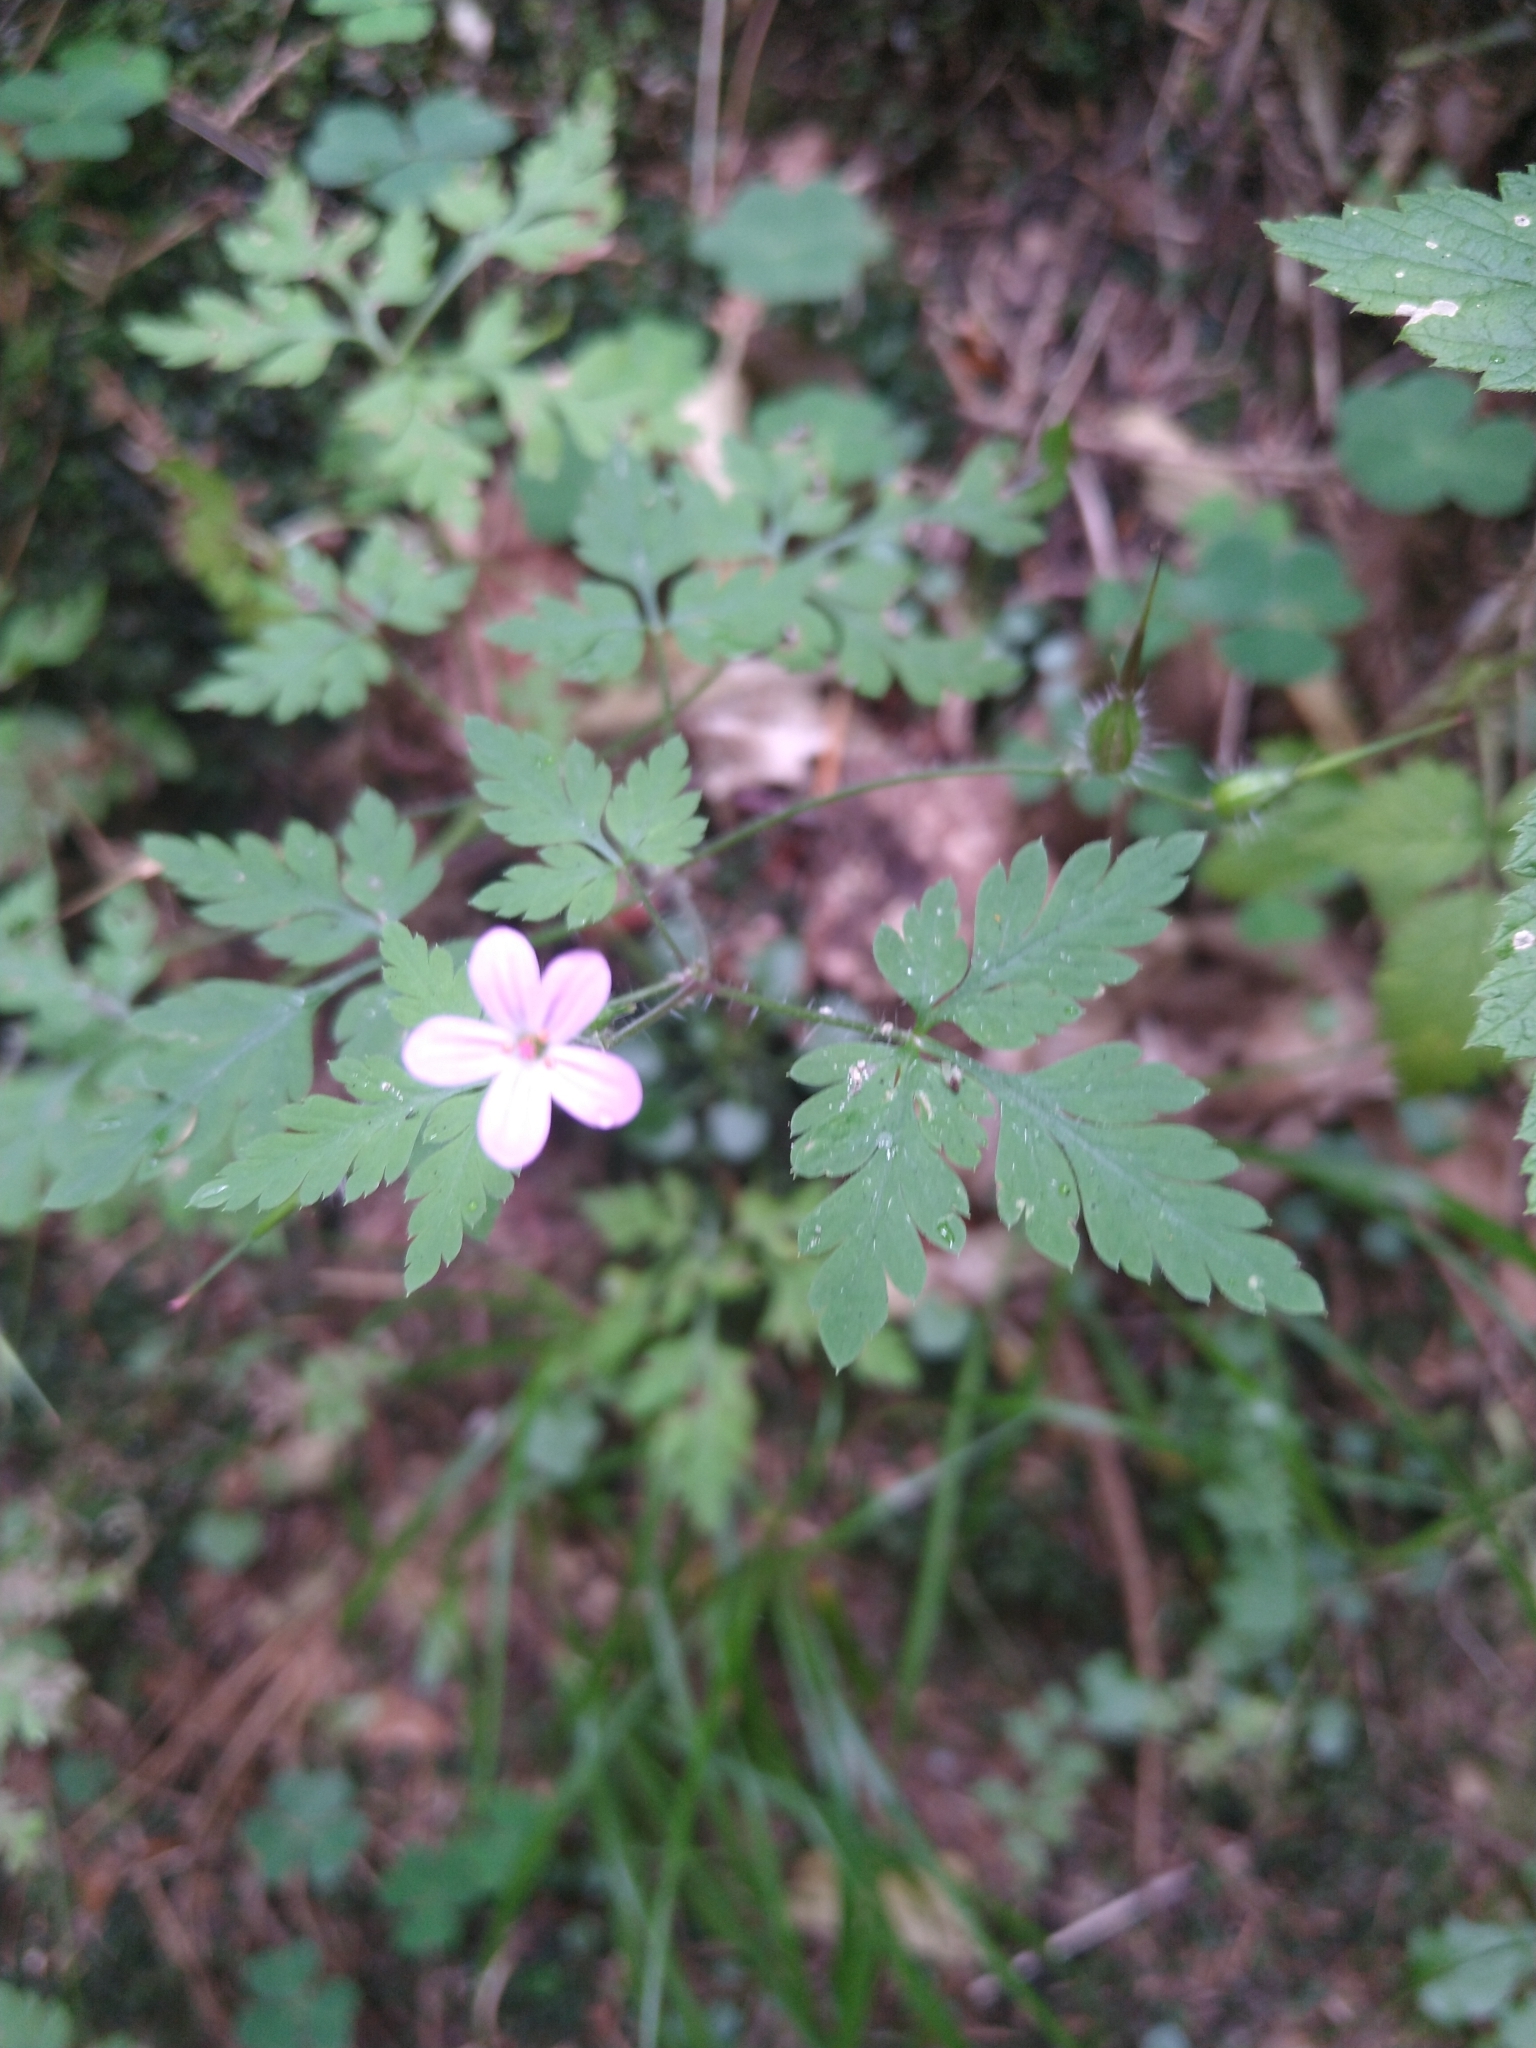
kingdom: Plantae
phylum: Tracheophyta
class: Magnoliopsida
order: Geraniales
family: Geraniaceae
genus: Geranium
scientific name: Geranium robertianum
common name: Herb-robert
